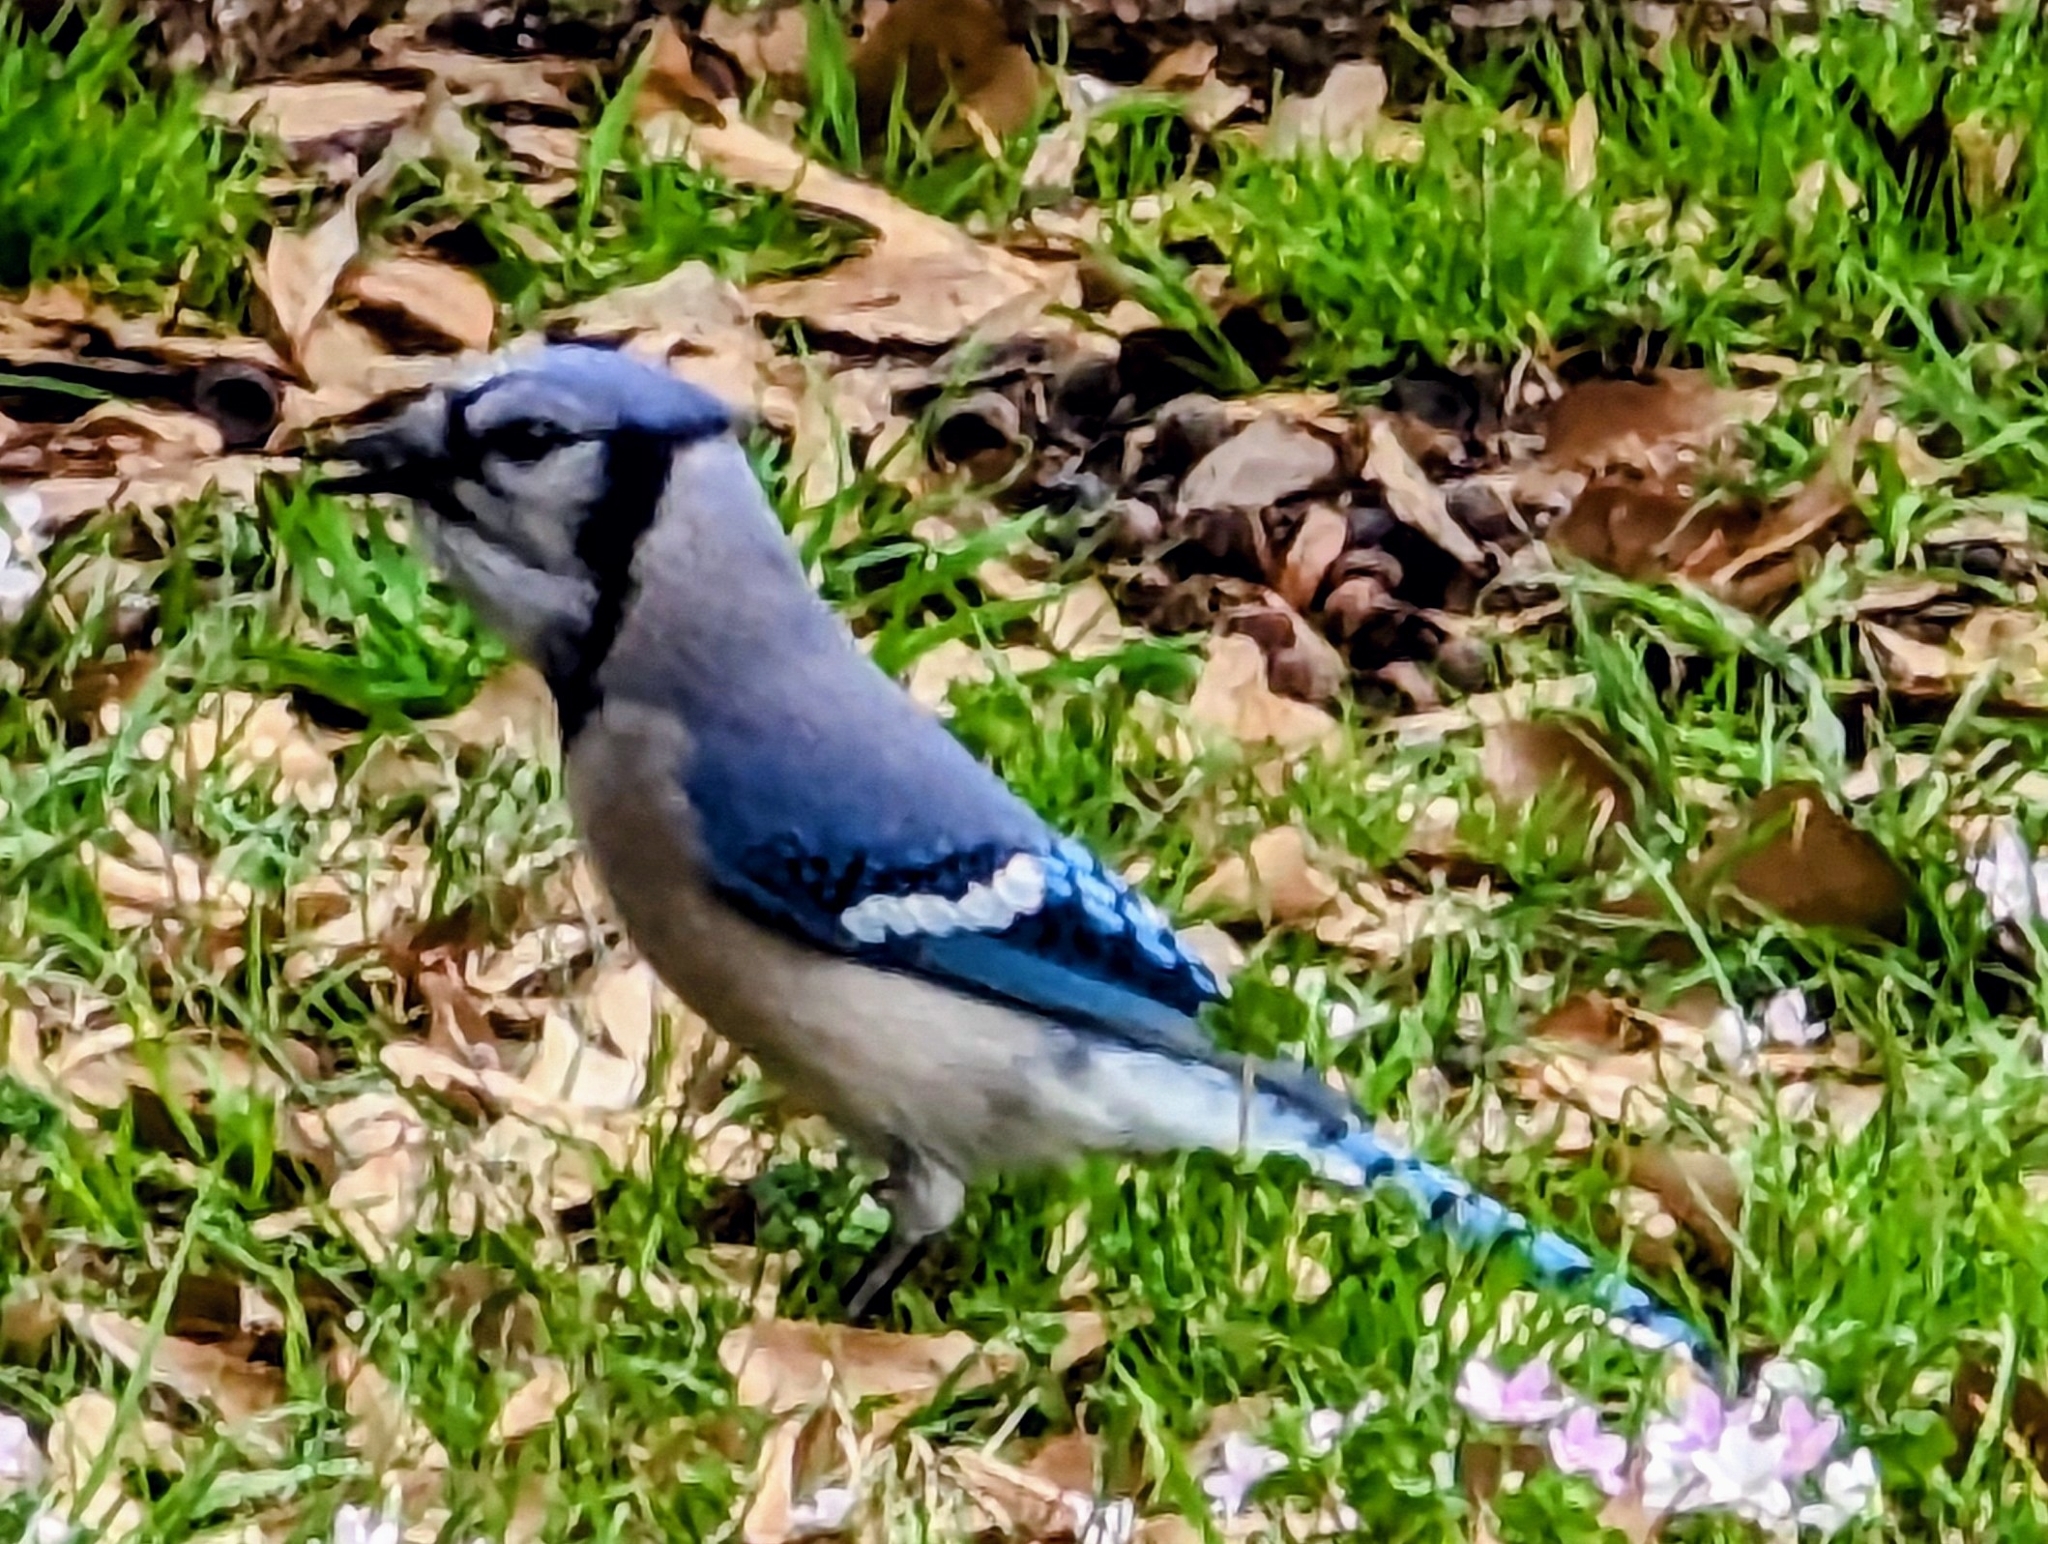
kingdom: Animalia
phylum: Chordata
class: Aves
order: Passeriformes
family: Corvidae
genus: Cyanocitta
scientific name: Cyanocitta cristata
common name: Blue jay
